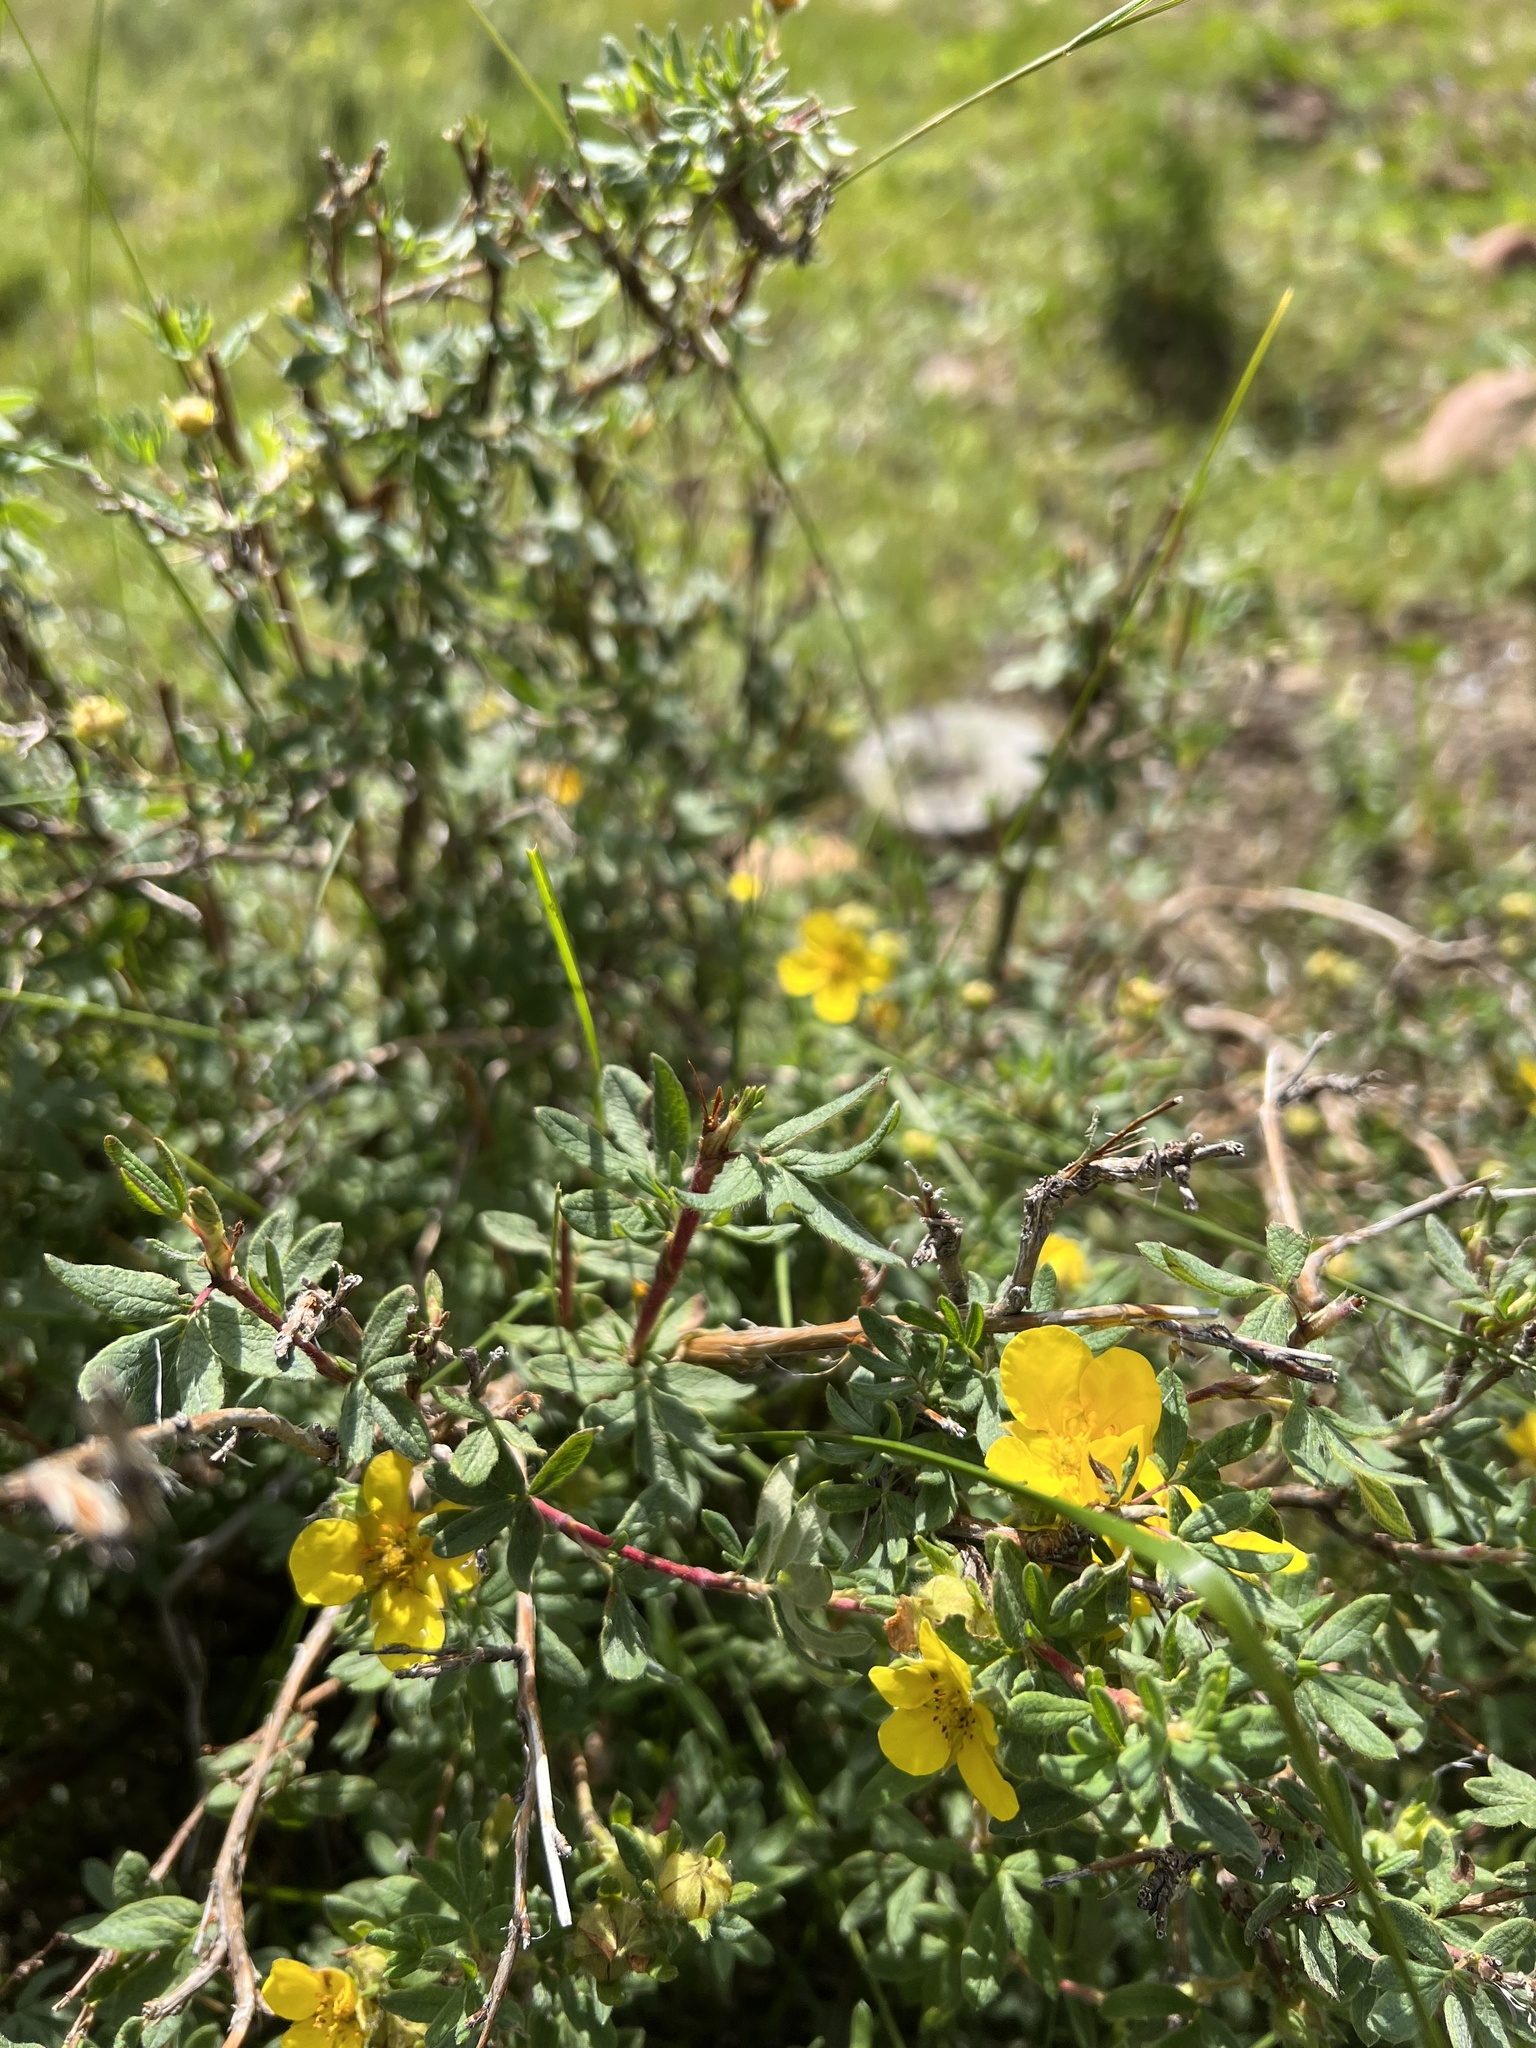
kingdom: Plantae
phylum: Tracheophyta
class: Magnoliopsida
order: Rosales
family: Rosaceae
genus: Dasiphora
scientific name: Dasiphora fruticosa
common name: Shrubby cinquefoil
